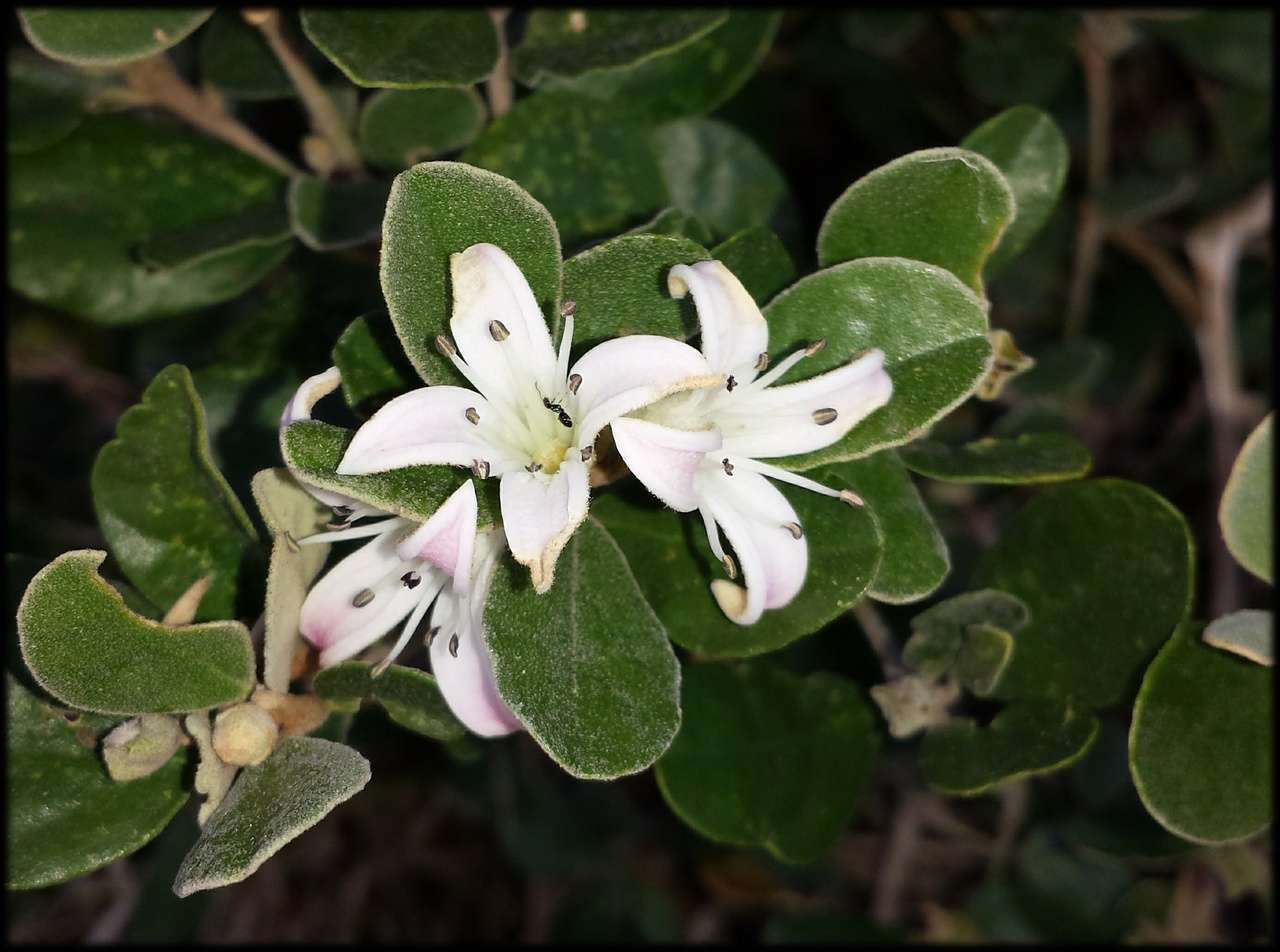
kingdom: Plantae
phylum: Tracheophyta
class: Magnoliopsida
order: Sapindales
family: Rutaceae
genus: Correa
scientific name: Correa alba
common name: White correa
